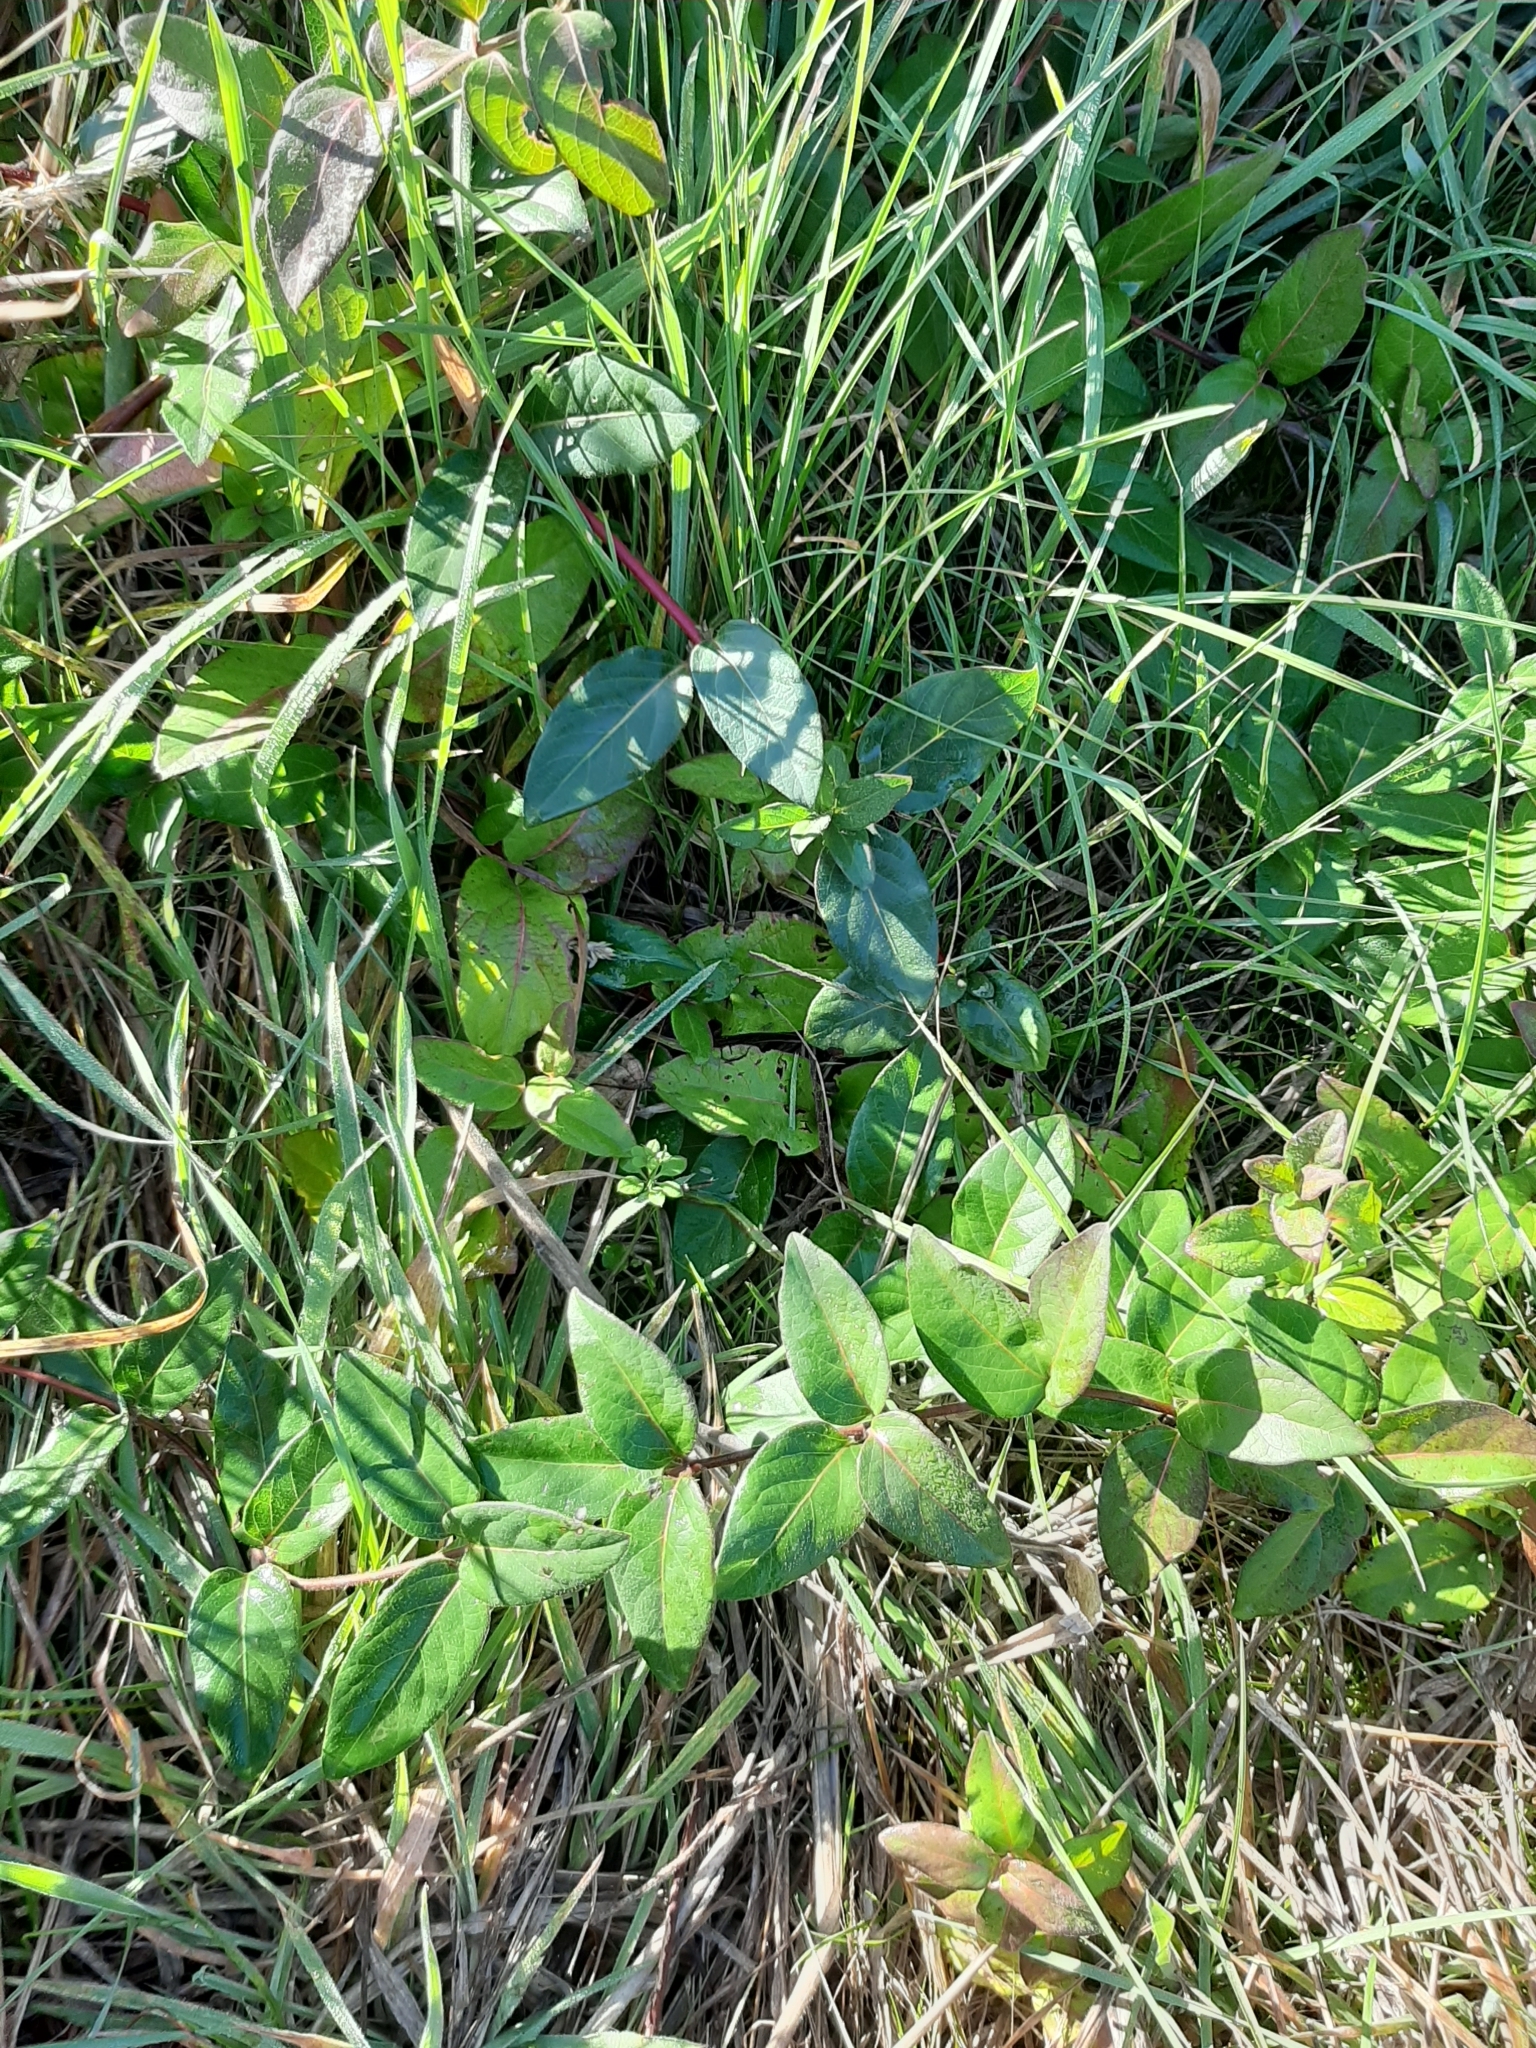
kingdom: Plantae
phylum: Tracheophyta
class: Magnoliopsida
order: Dipsacales
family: Caprifoliaceae
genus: Lonicera
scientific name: Lonicera japonica
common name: Japanese honeysuckle
